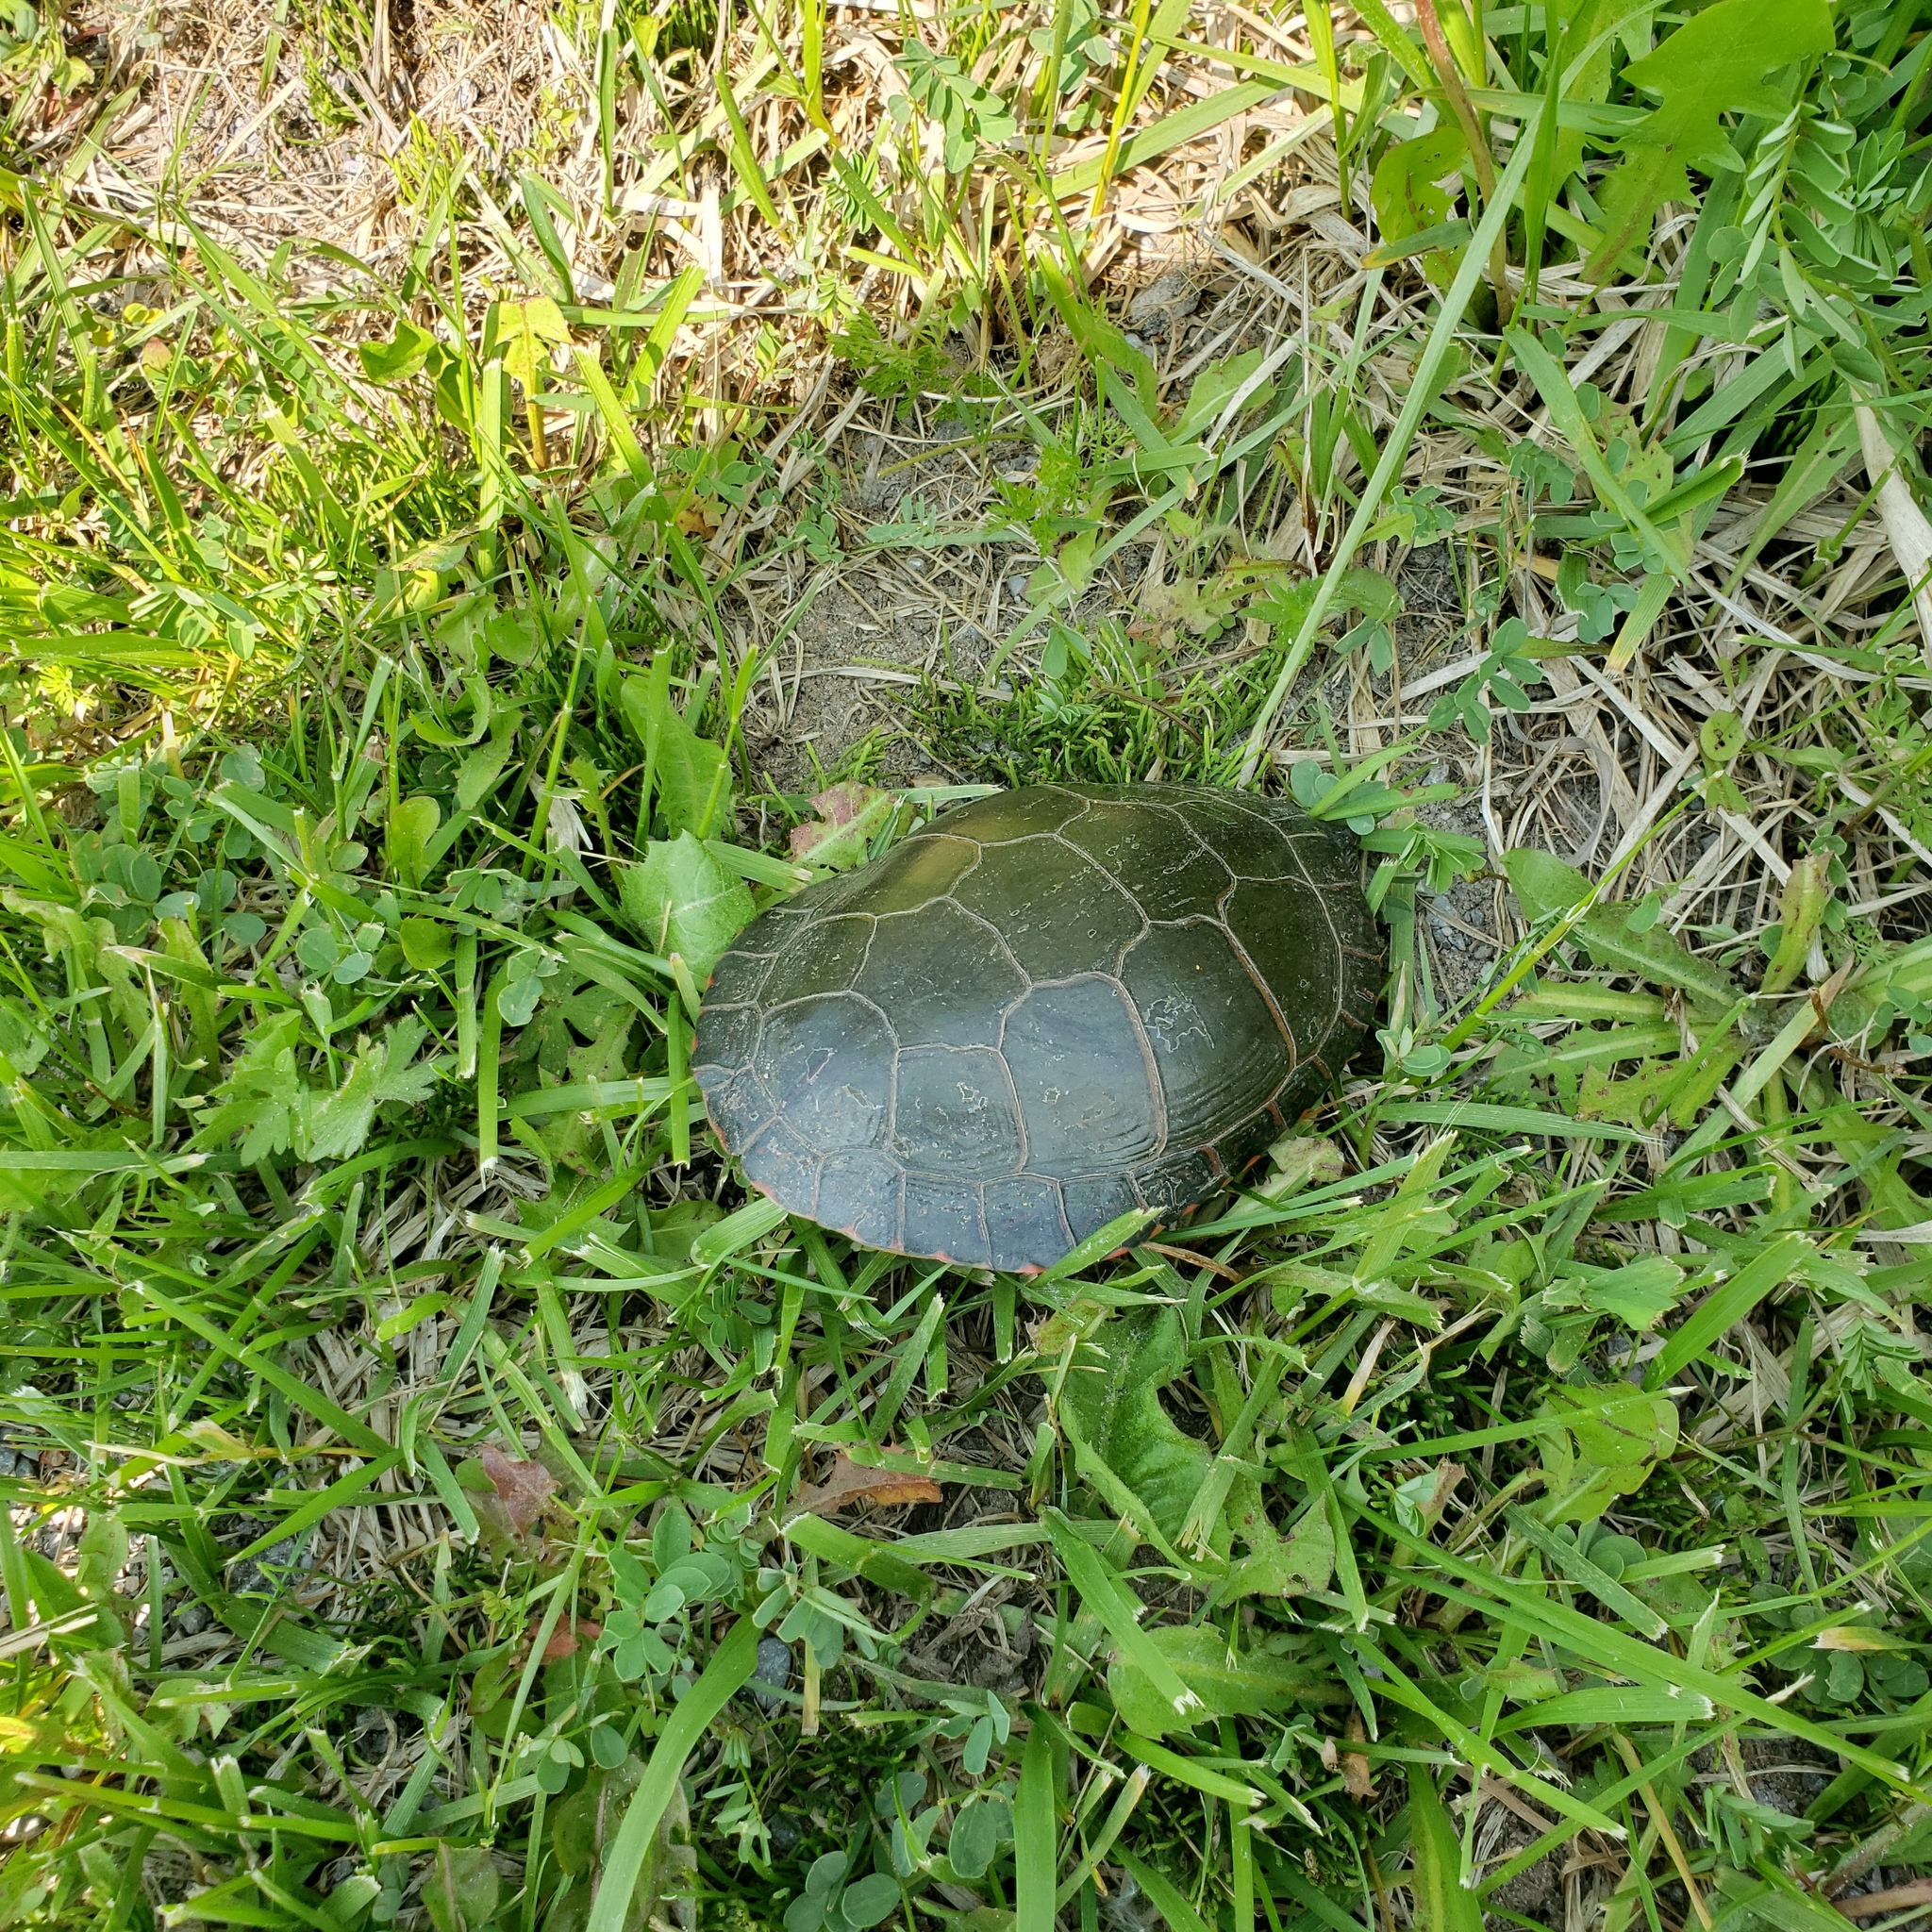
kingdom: Animalia
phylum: Chordata
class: Testudines
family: Emydidae
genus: Chrysemys
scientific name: Chrysemys picta
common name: Painted turtle
